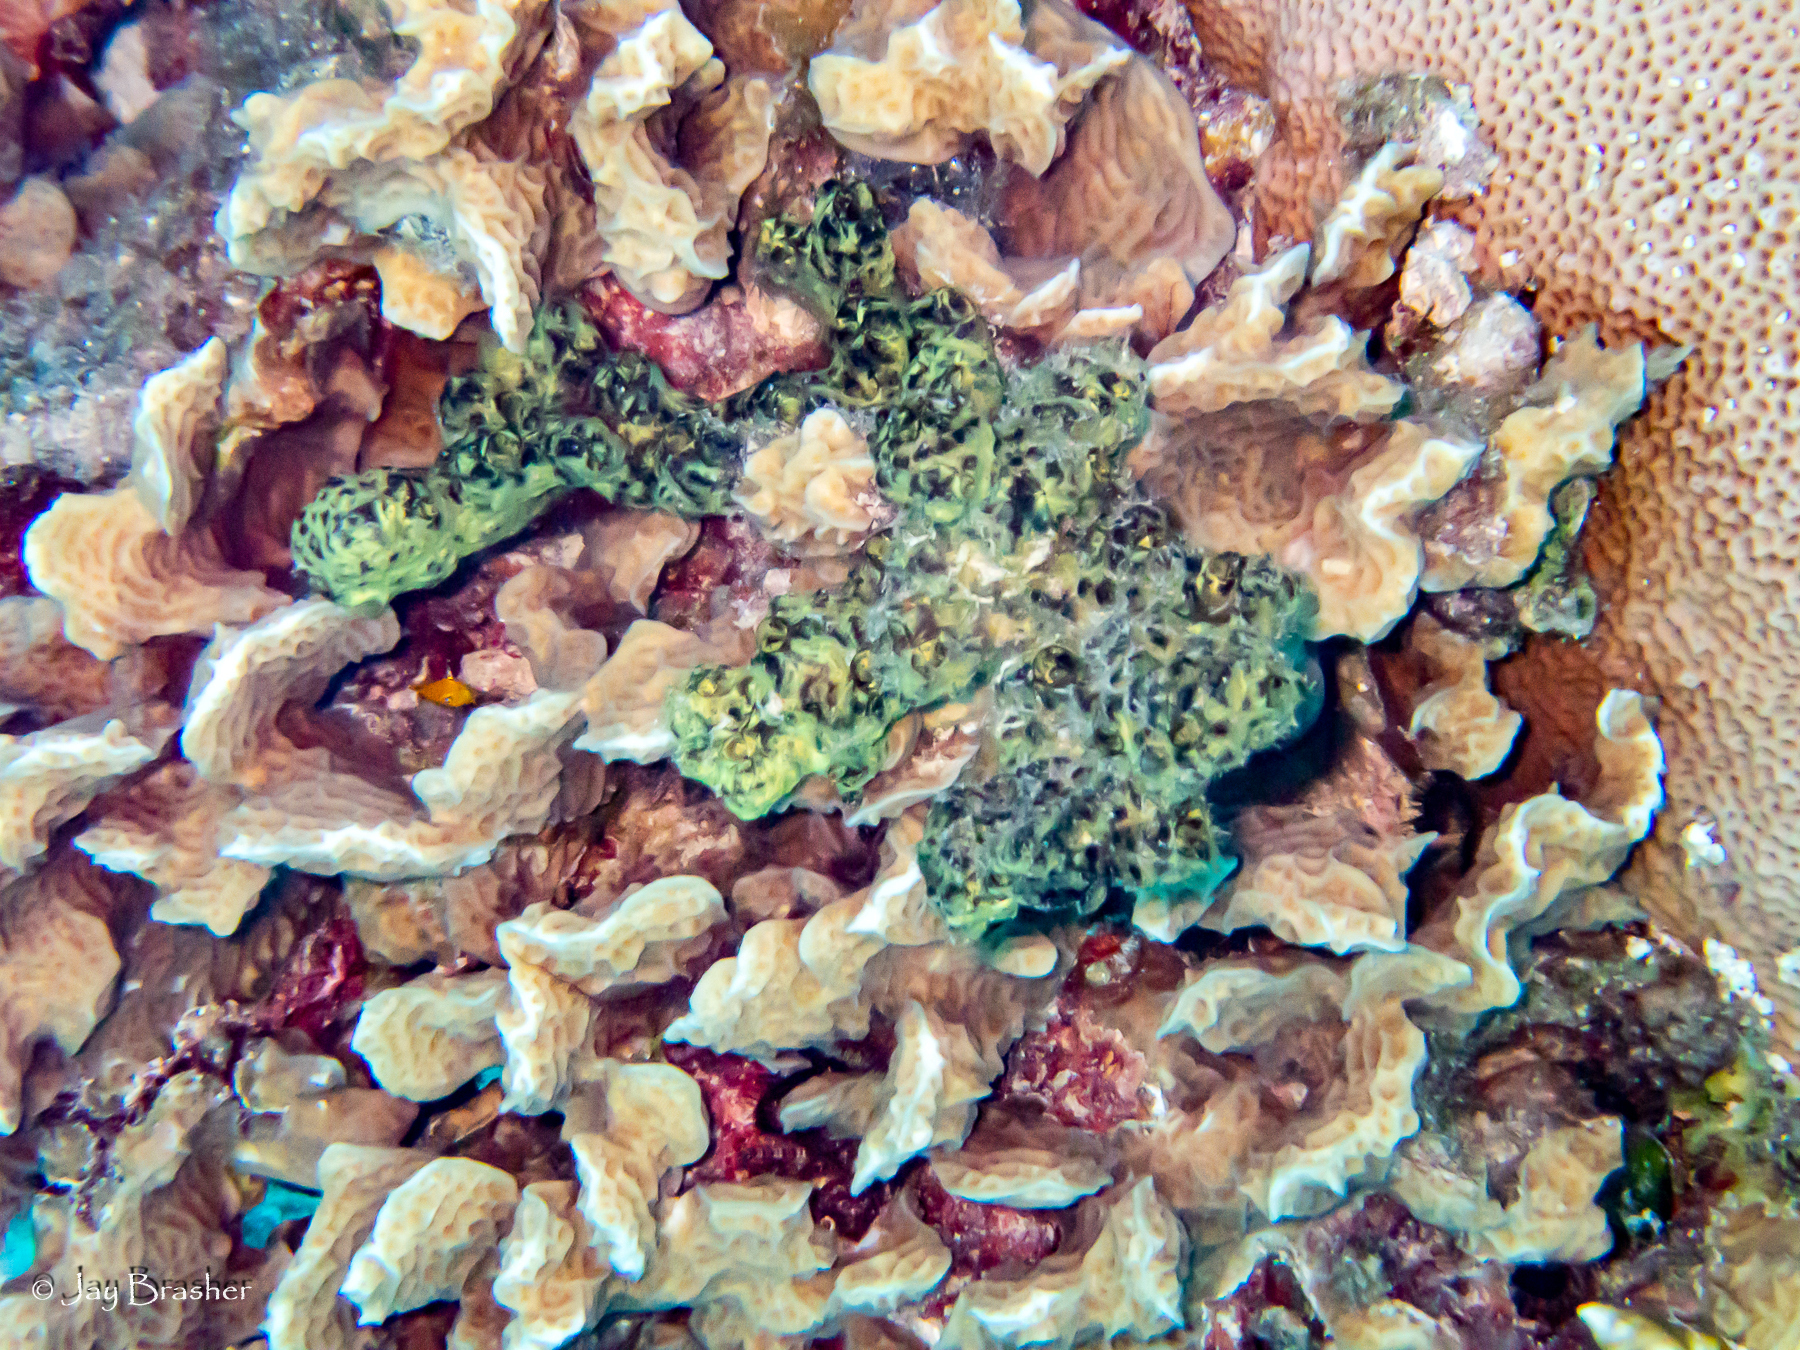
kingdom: Animalia
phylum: Cnidaria
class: Anthozoa
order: Scleractinia
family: Agariciidae
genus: Agaricia
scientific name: Agaricia agaricites
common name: Lettuce coral
